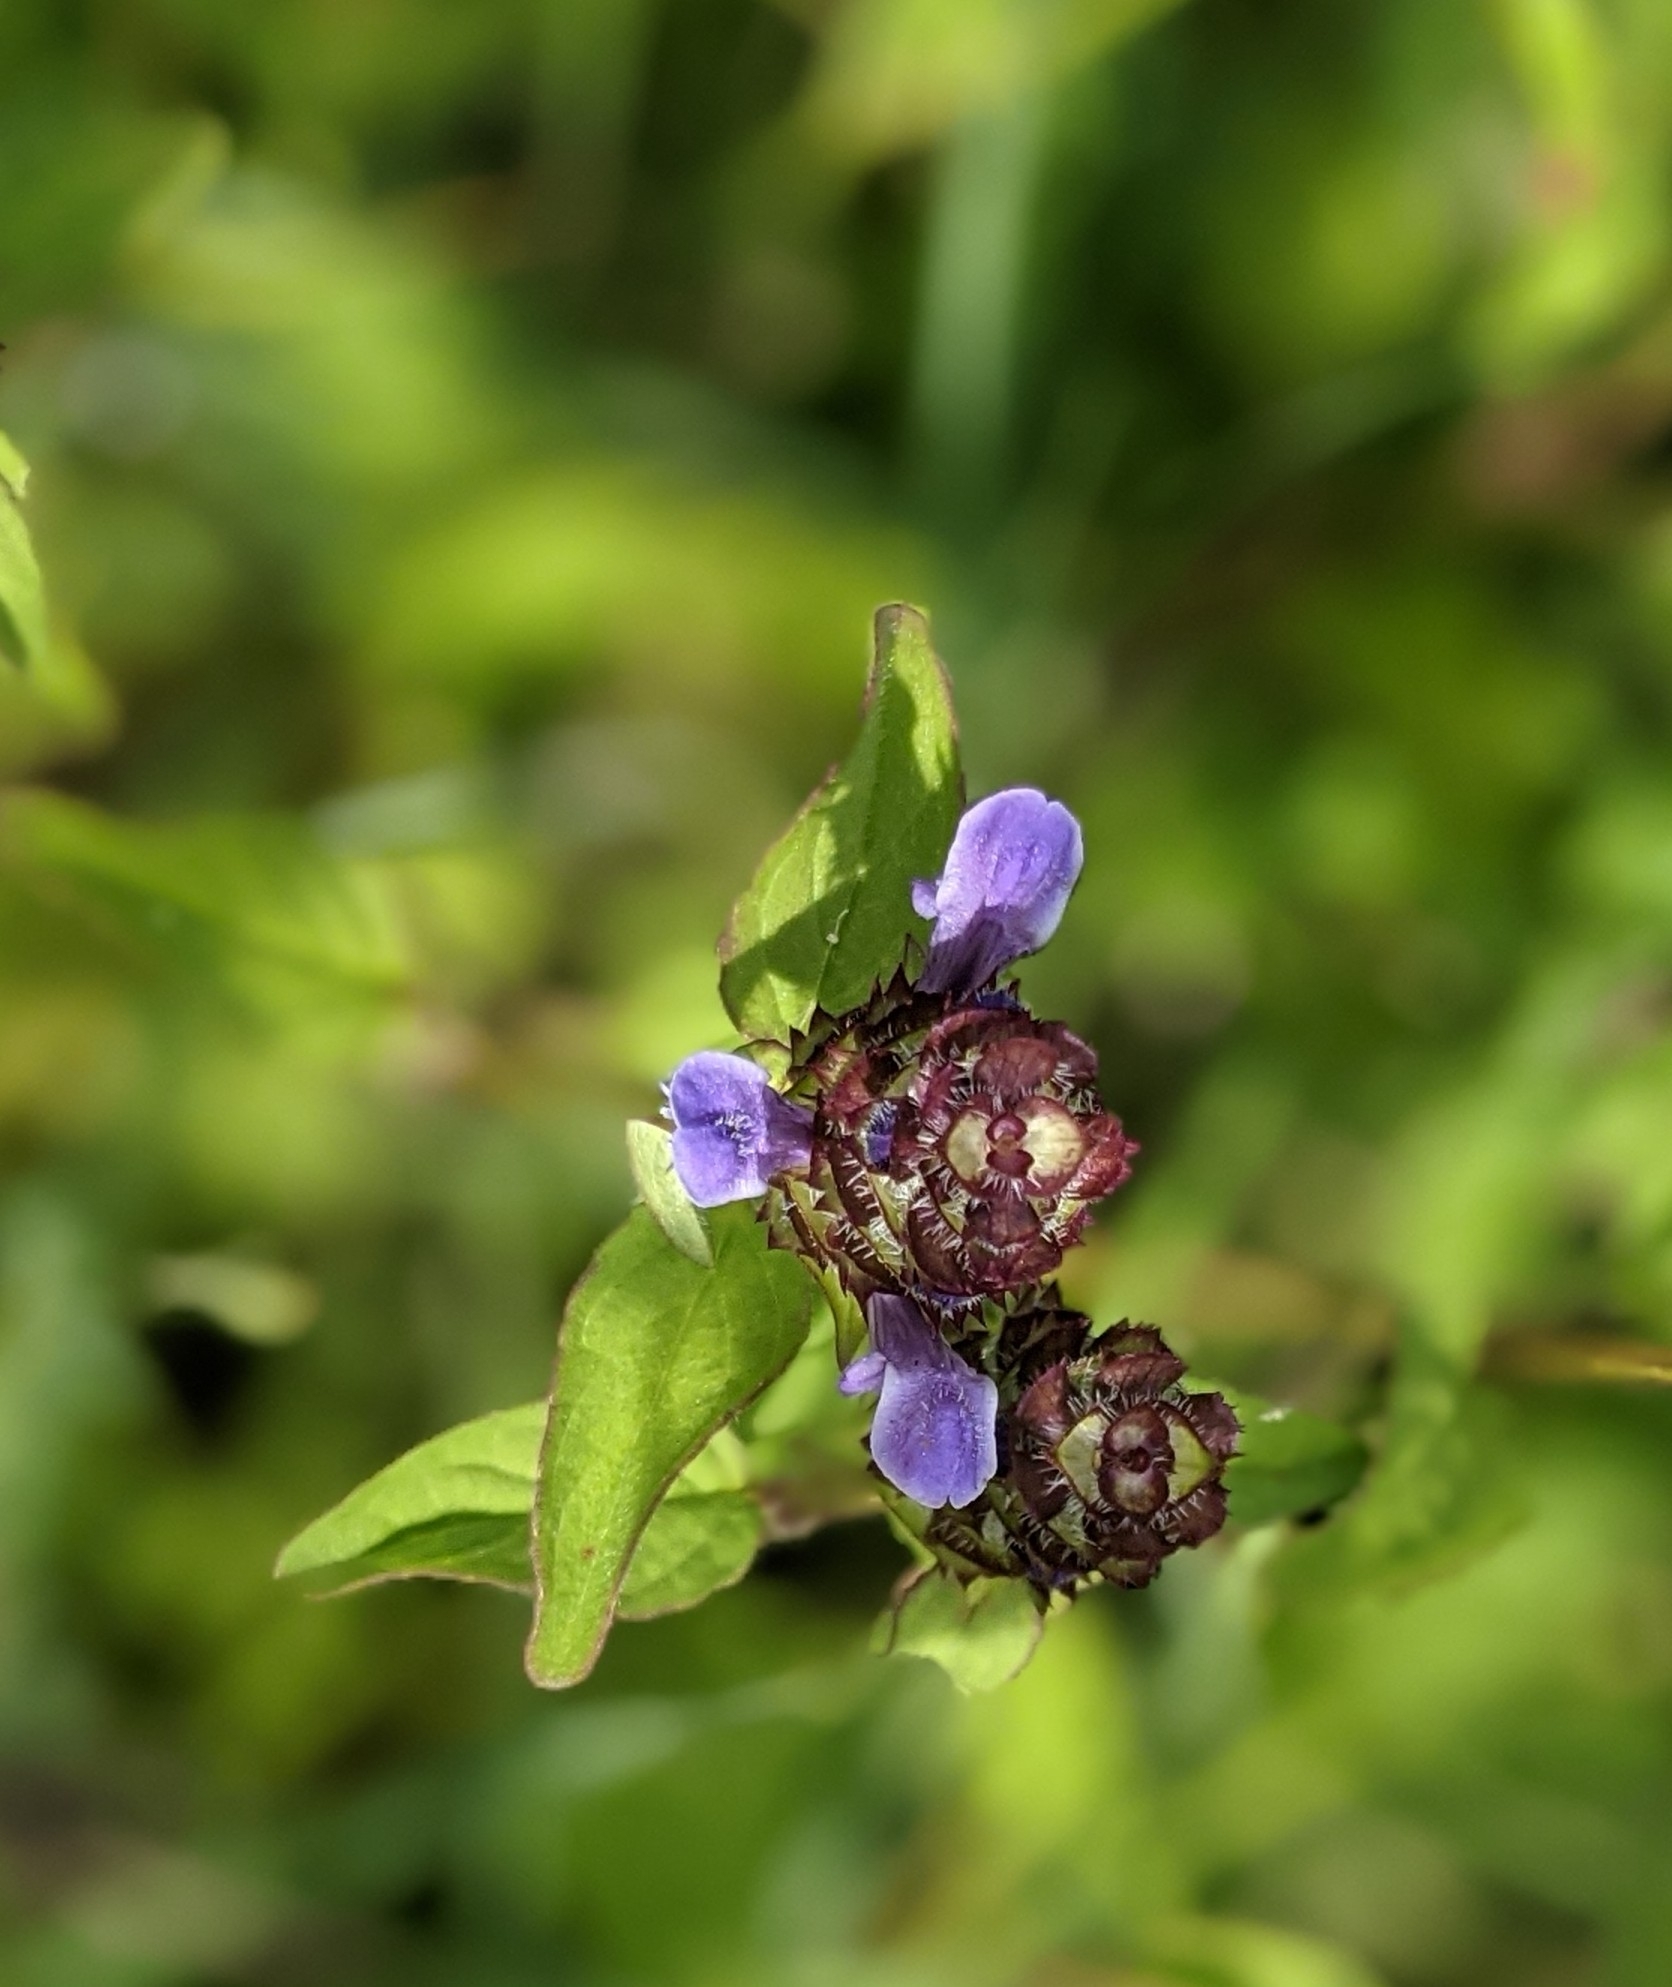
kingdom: Plantae
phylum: Tracheophyta
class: Magnoliopsida
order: Lamiales
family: Lamiaceae
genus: Prunella
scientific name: Prunella vulgaris
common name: Heal-all
